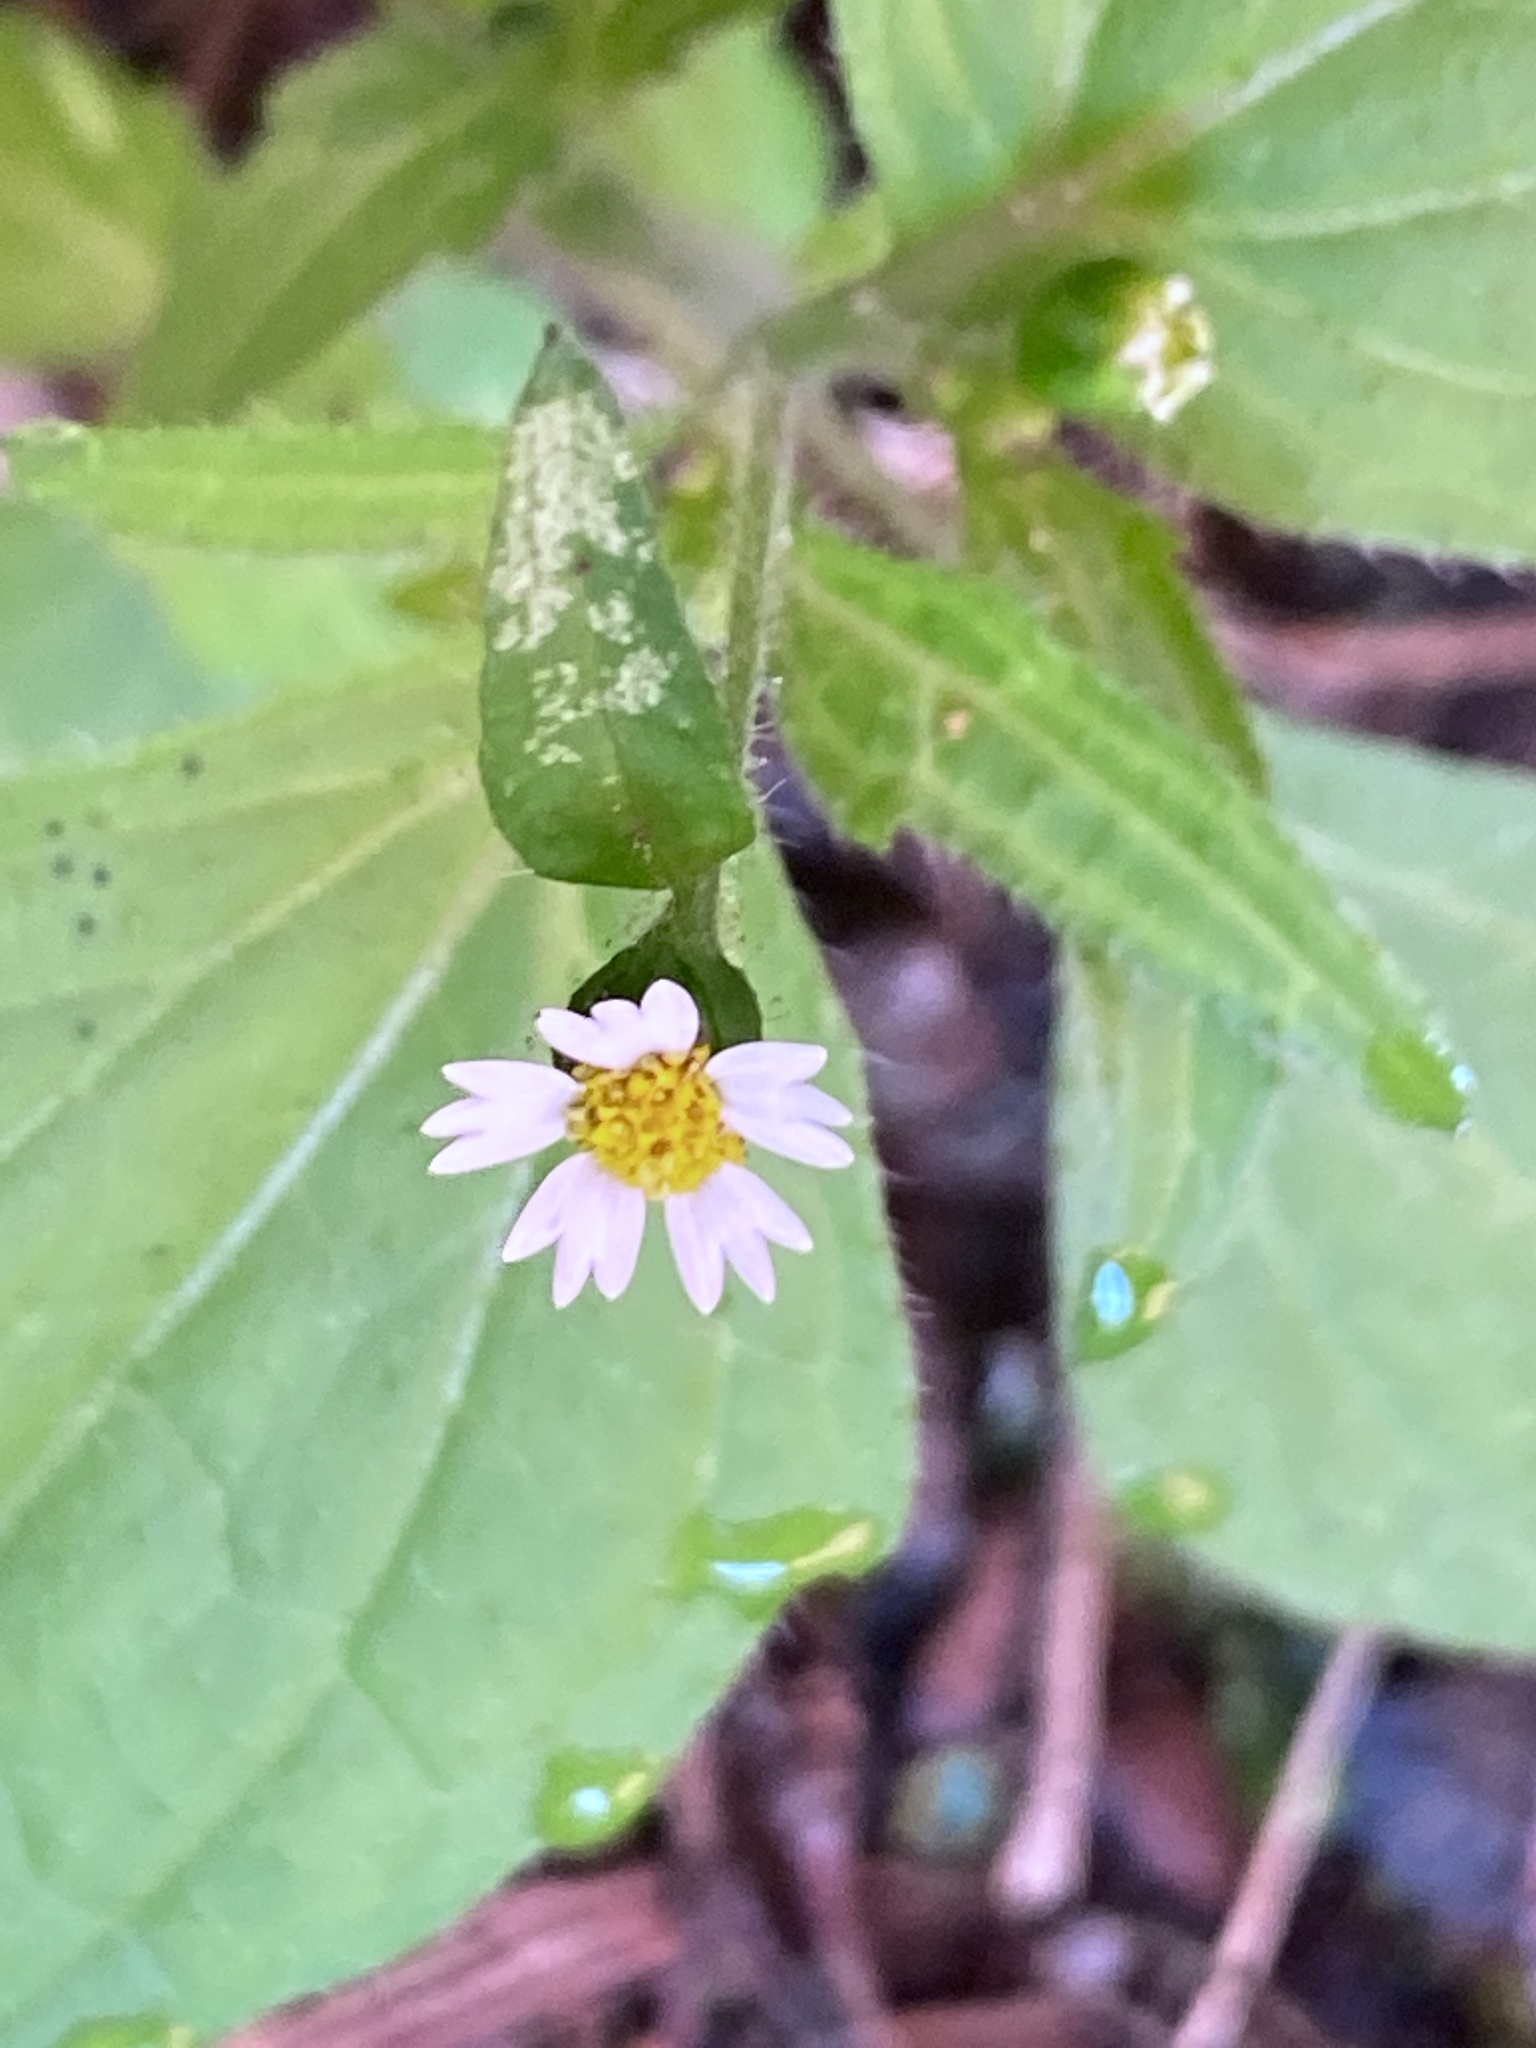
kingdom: Plantae
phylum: Tracheophyta
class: Magnoliopsida
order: Asterales
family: Asteraceae
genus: Galinsoga
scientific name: Galinsoga quadriradiata
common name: Shaggy soldier
